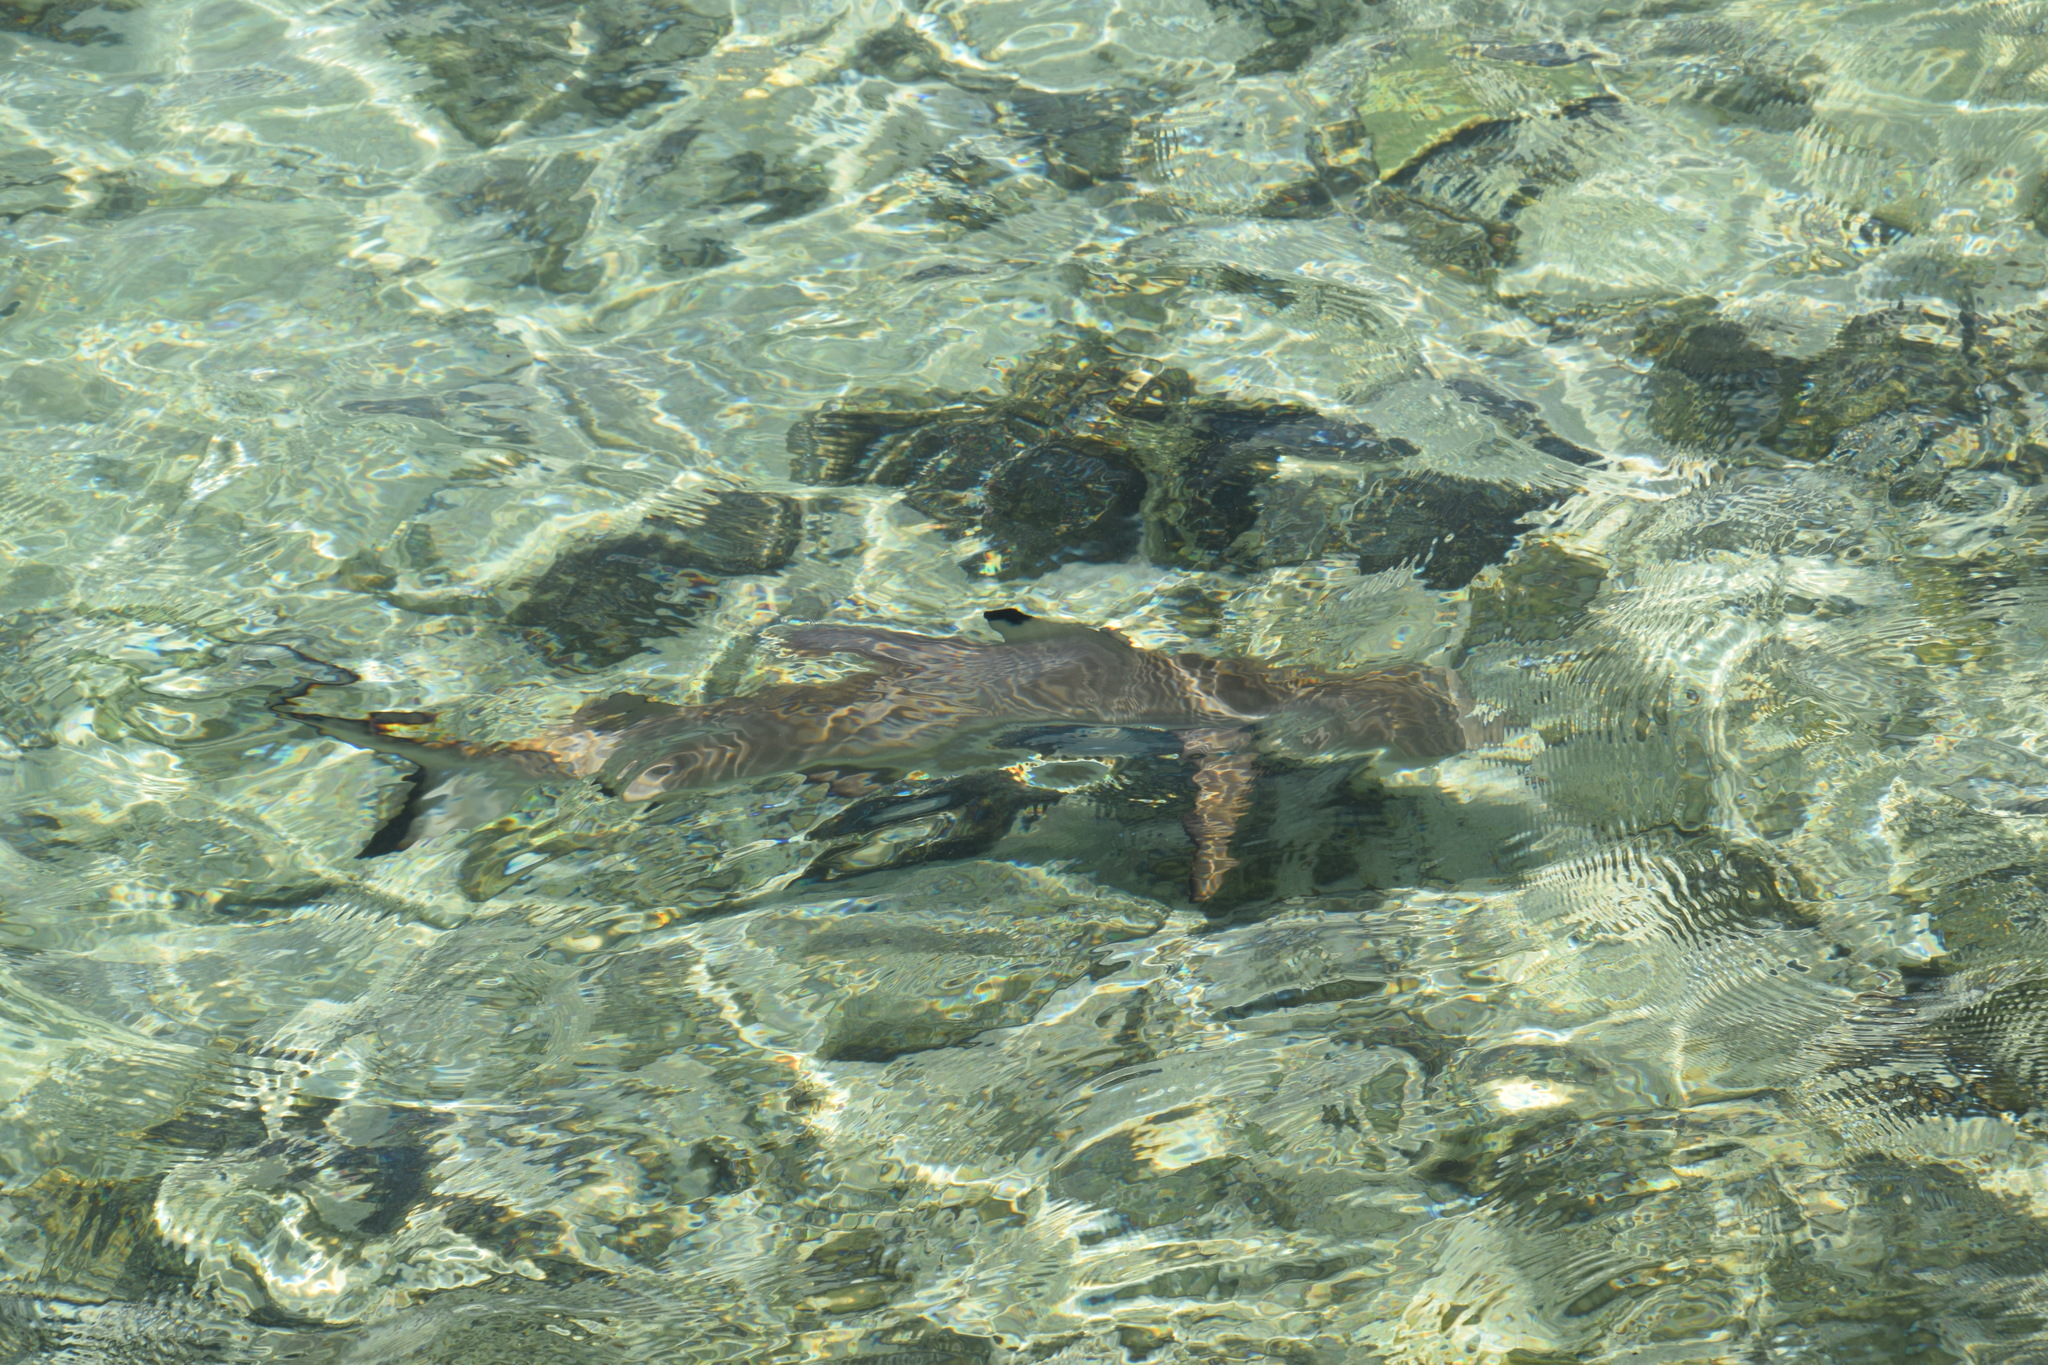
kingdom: Animalia
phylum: Chordata
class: Elasmobranchii
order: Carcharhiniformes
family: Carcharhinidae
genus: Carcharhinus
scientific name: Carcharhinus melanopterus
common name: Blacktip reef shark
